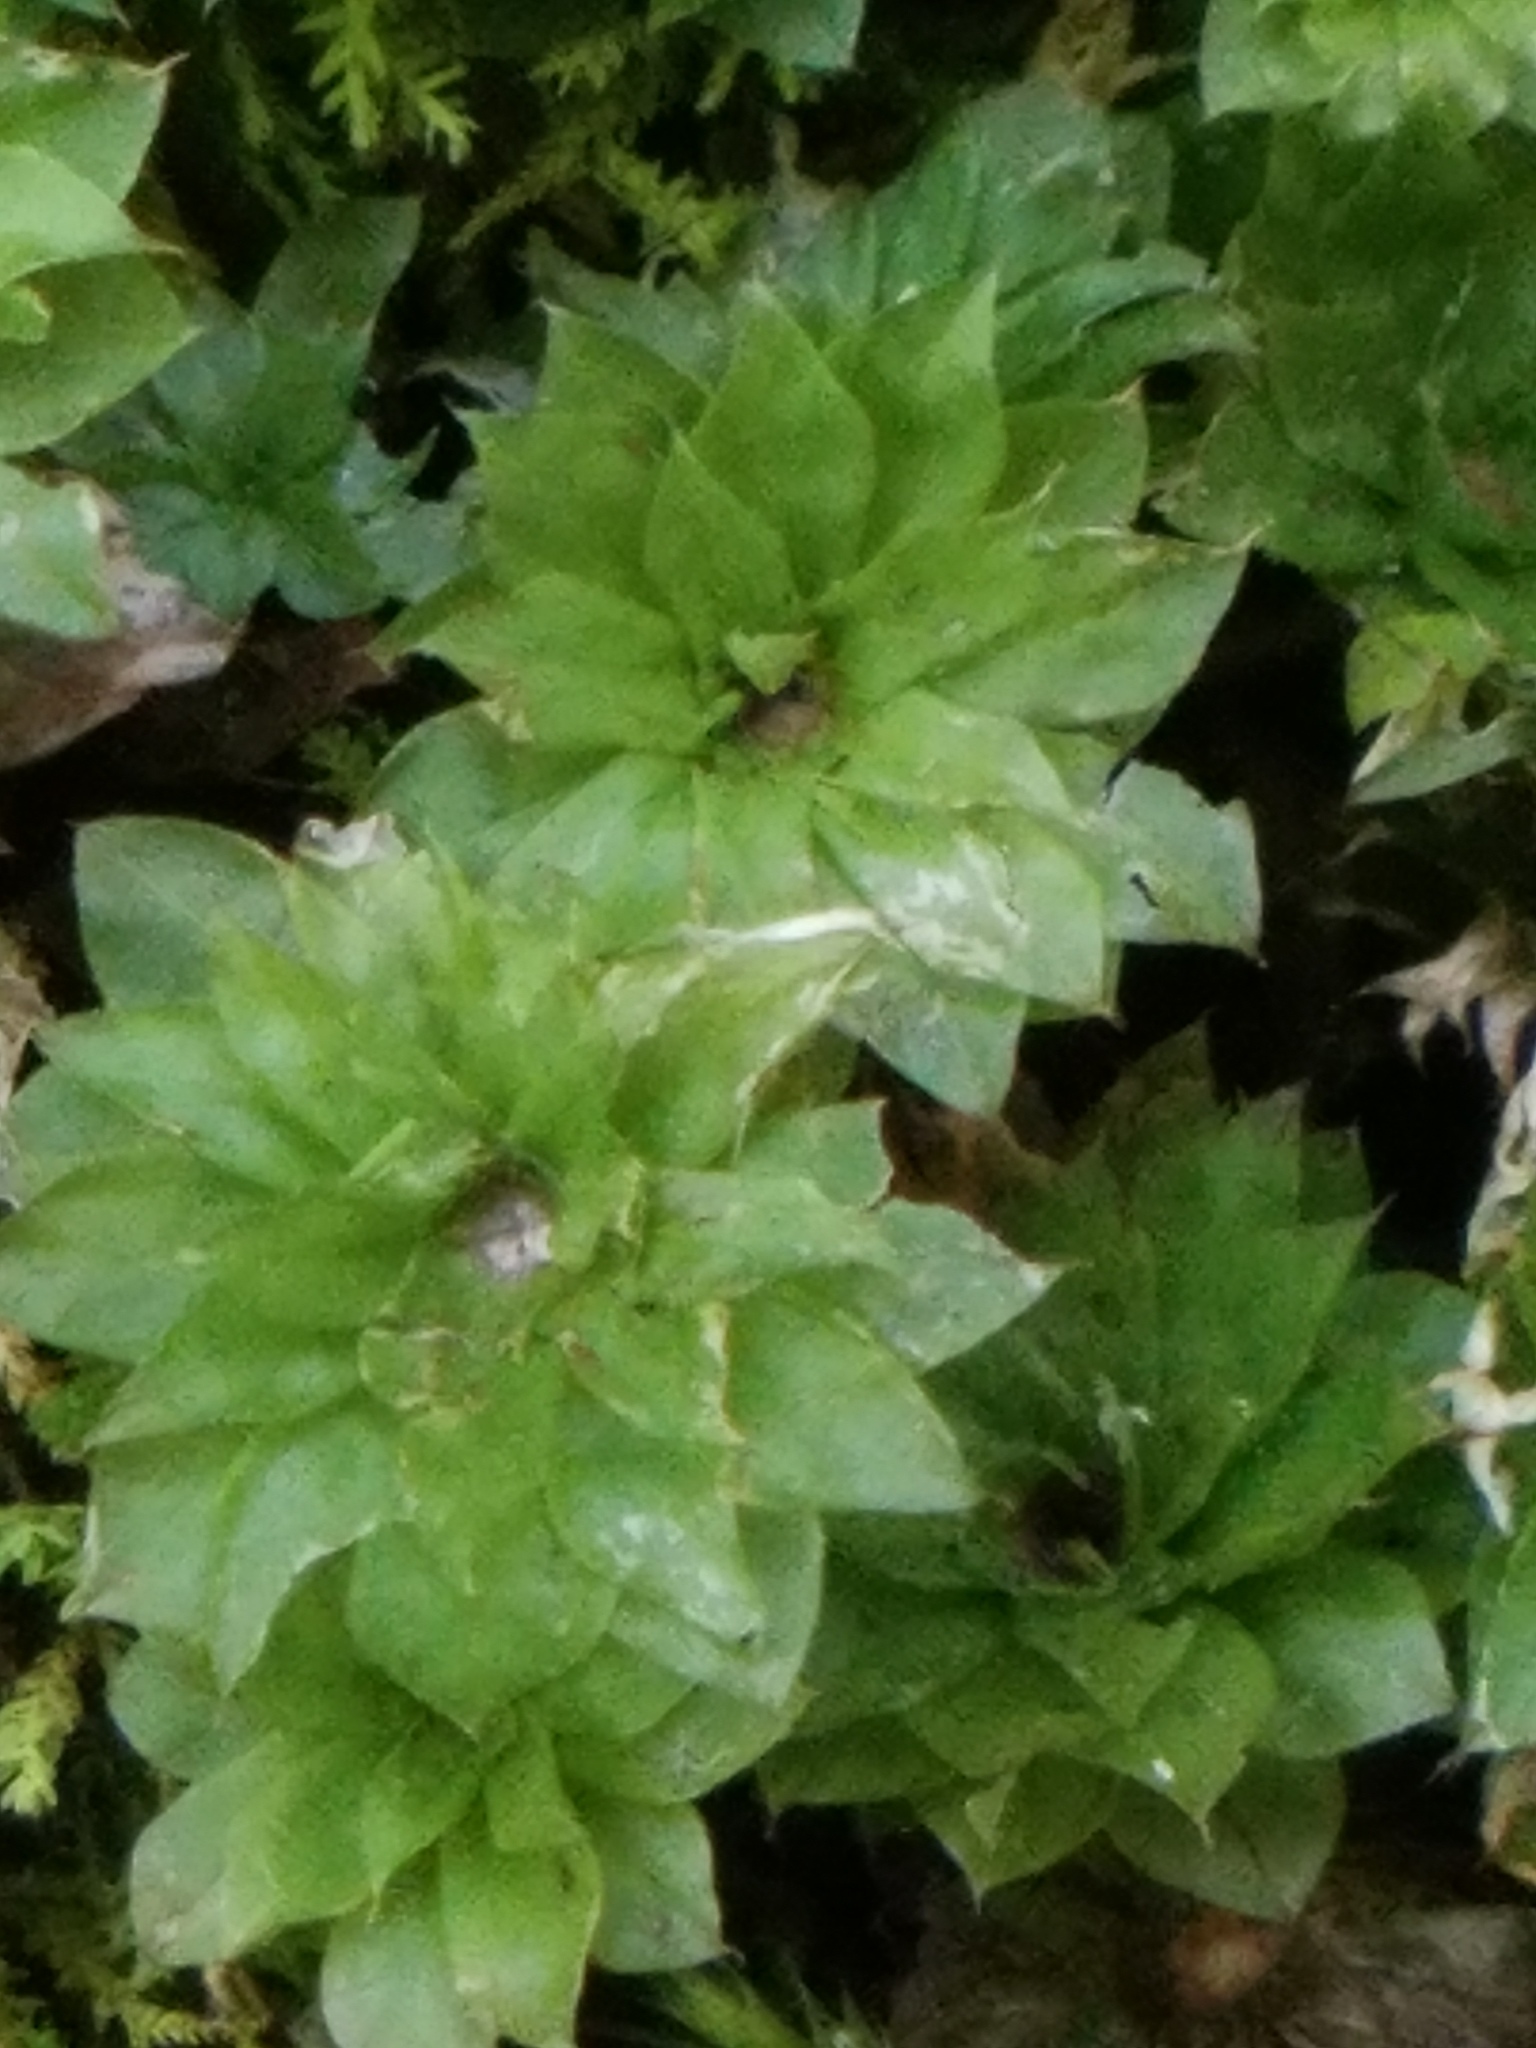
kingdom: Plantae
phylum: Bryophyta
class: Bryopsida
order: Bryales
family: Bryaceae
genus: Rhodobryum
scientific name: Rhodobryum ontariense
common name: Ontario rhodobryum moss
